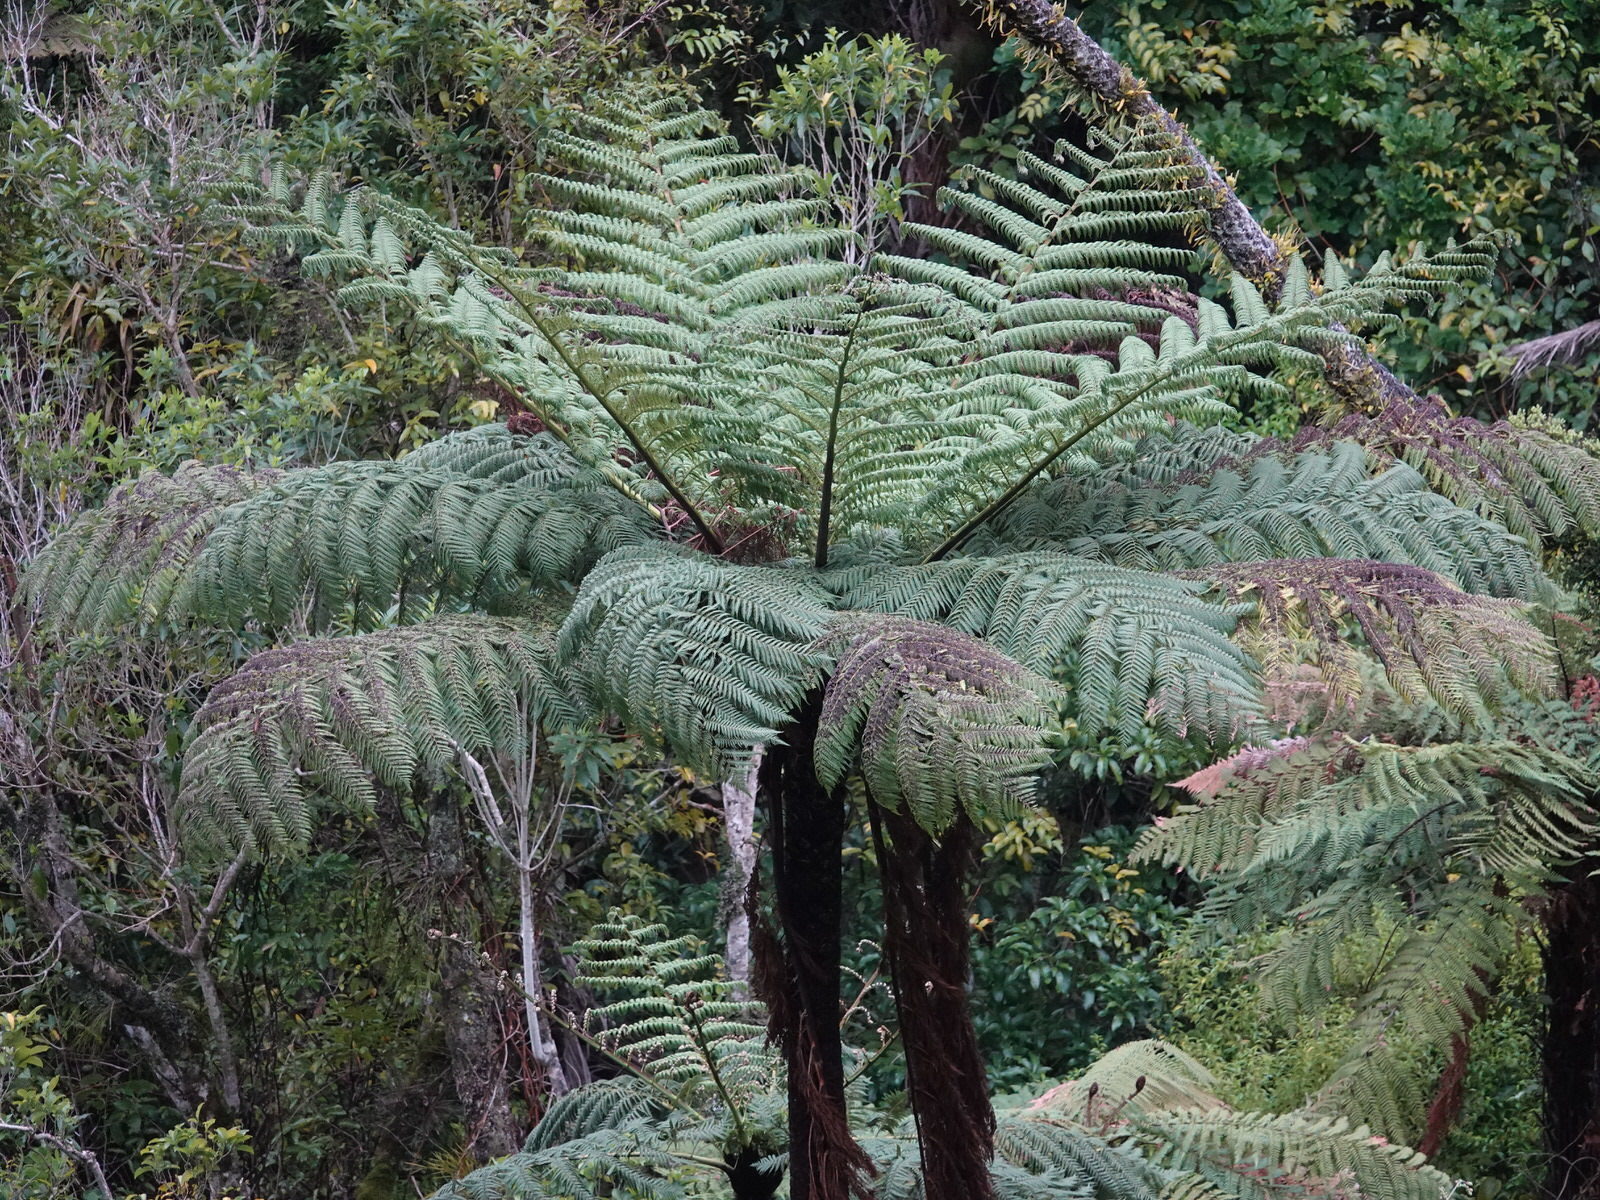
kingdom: Plantae
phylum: Tracheophyta
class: Polypodiopsida
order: Cyatheales
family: Cyatheaceae
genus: Sphaeropteris
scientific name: Sphaeropteris medullaris
